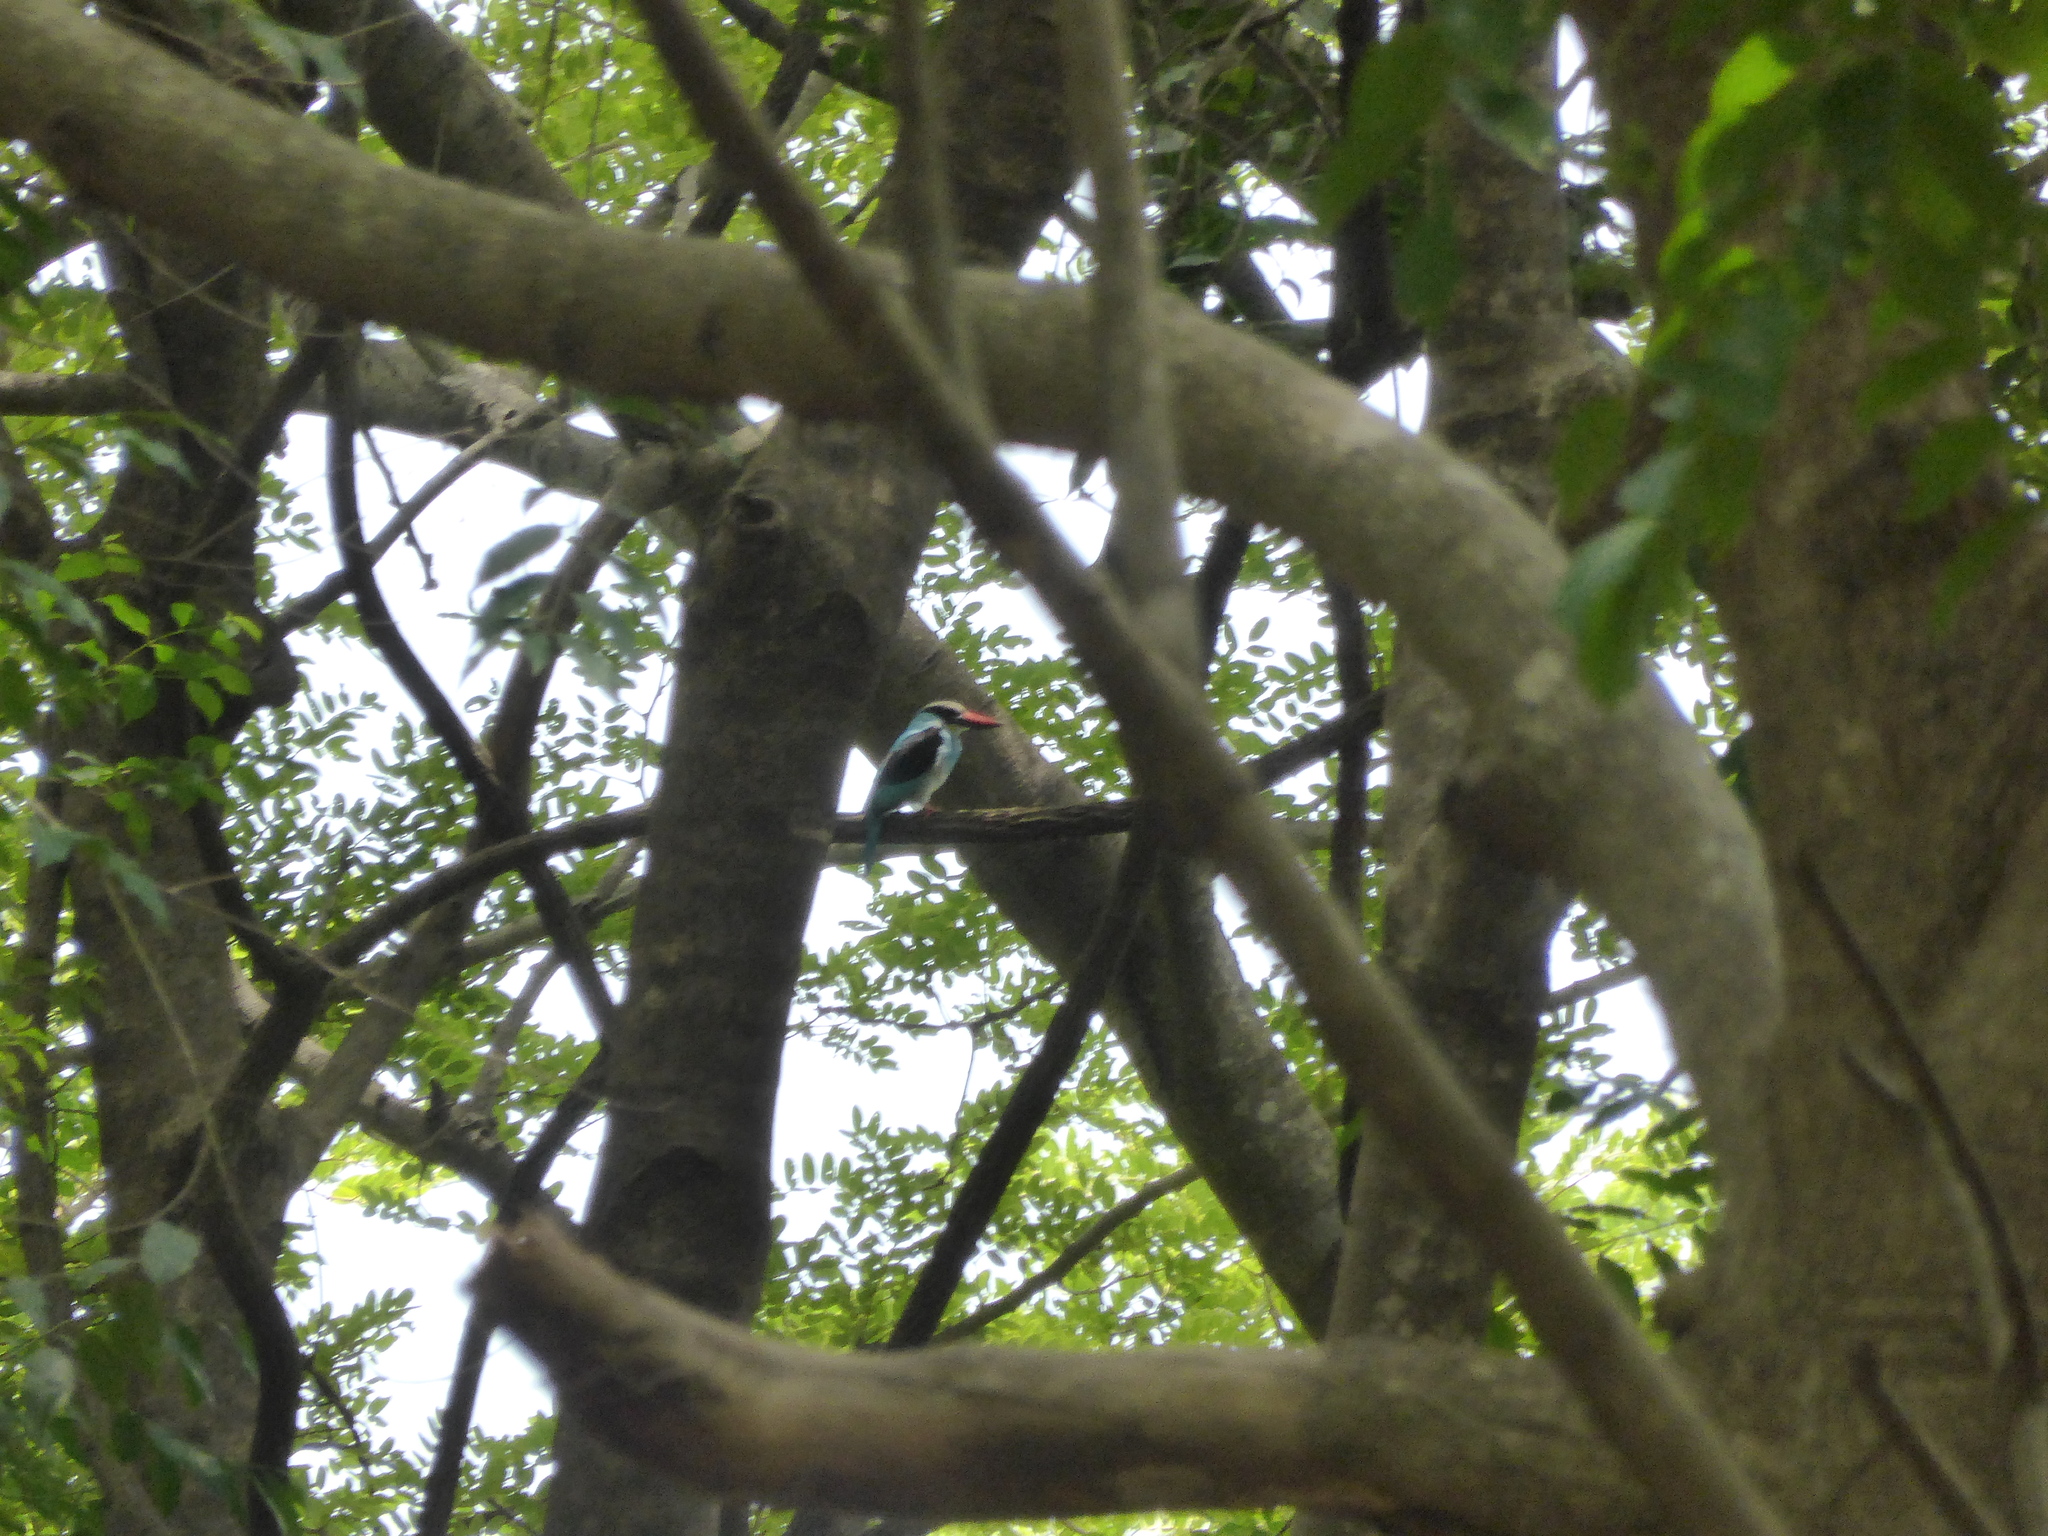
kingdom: Animalia
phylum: Chordata
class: Aves
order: Coraciiformes
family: Alcedinidae
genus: Halcyon
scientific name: Halcyon malimbica
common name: Blue-breasted kingfisher
